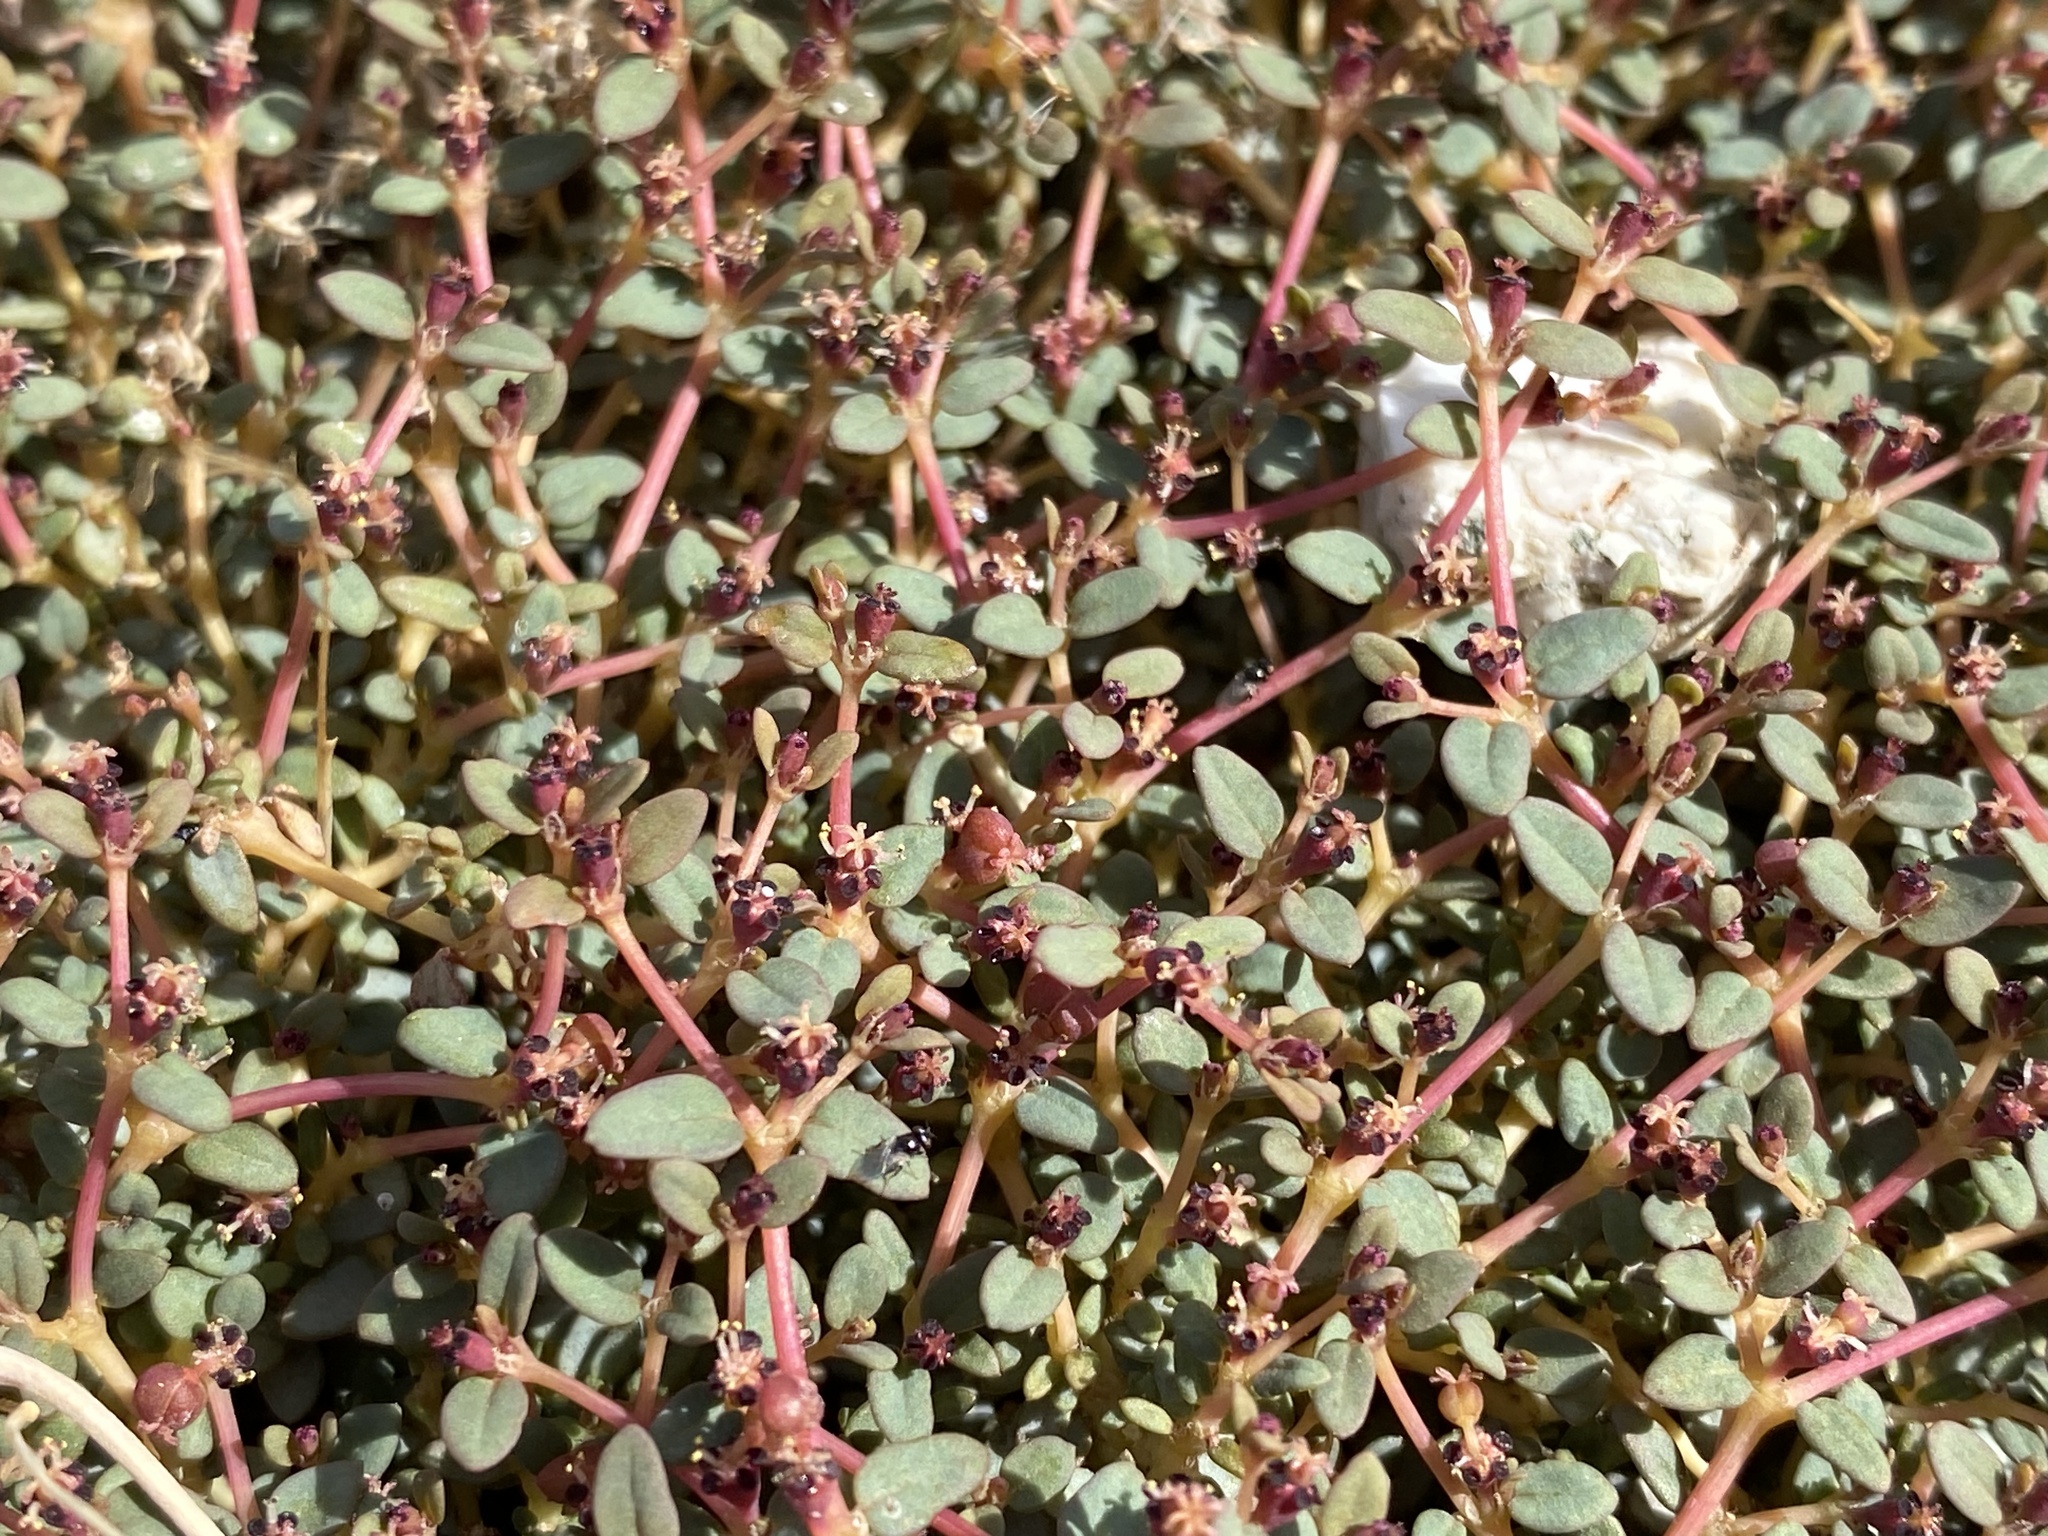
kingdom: Plantae
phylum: Tracheophyta
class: Magnoliopsida
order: Malpighiales
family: Euphorbiaceae
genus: Euphorbia
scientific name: Euphorbia parishii
